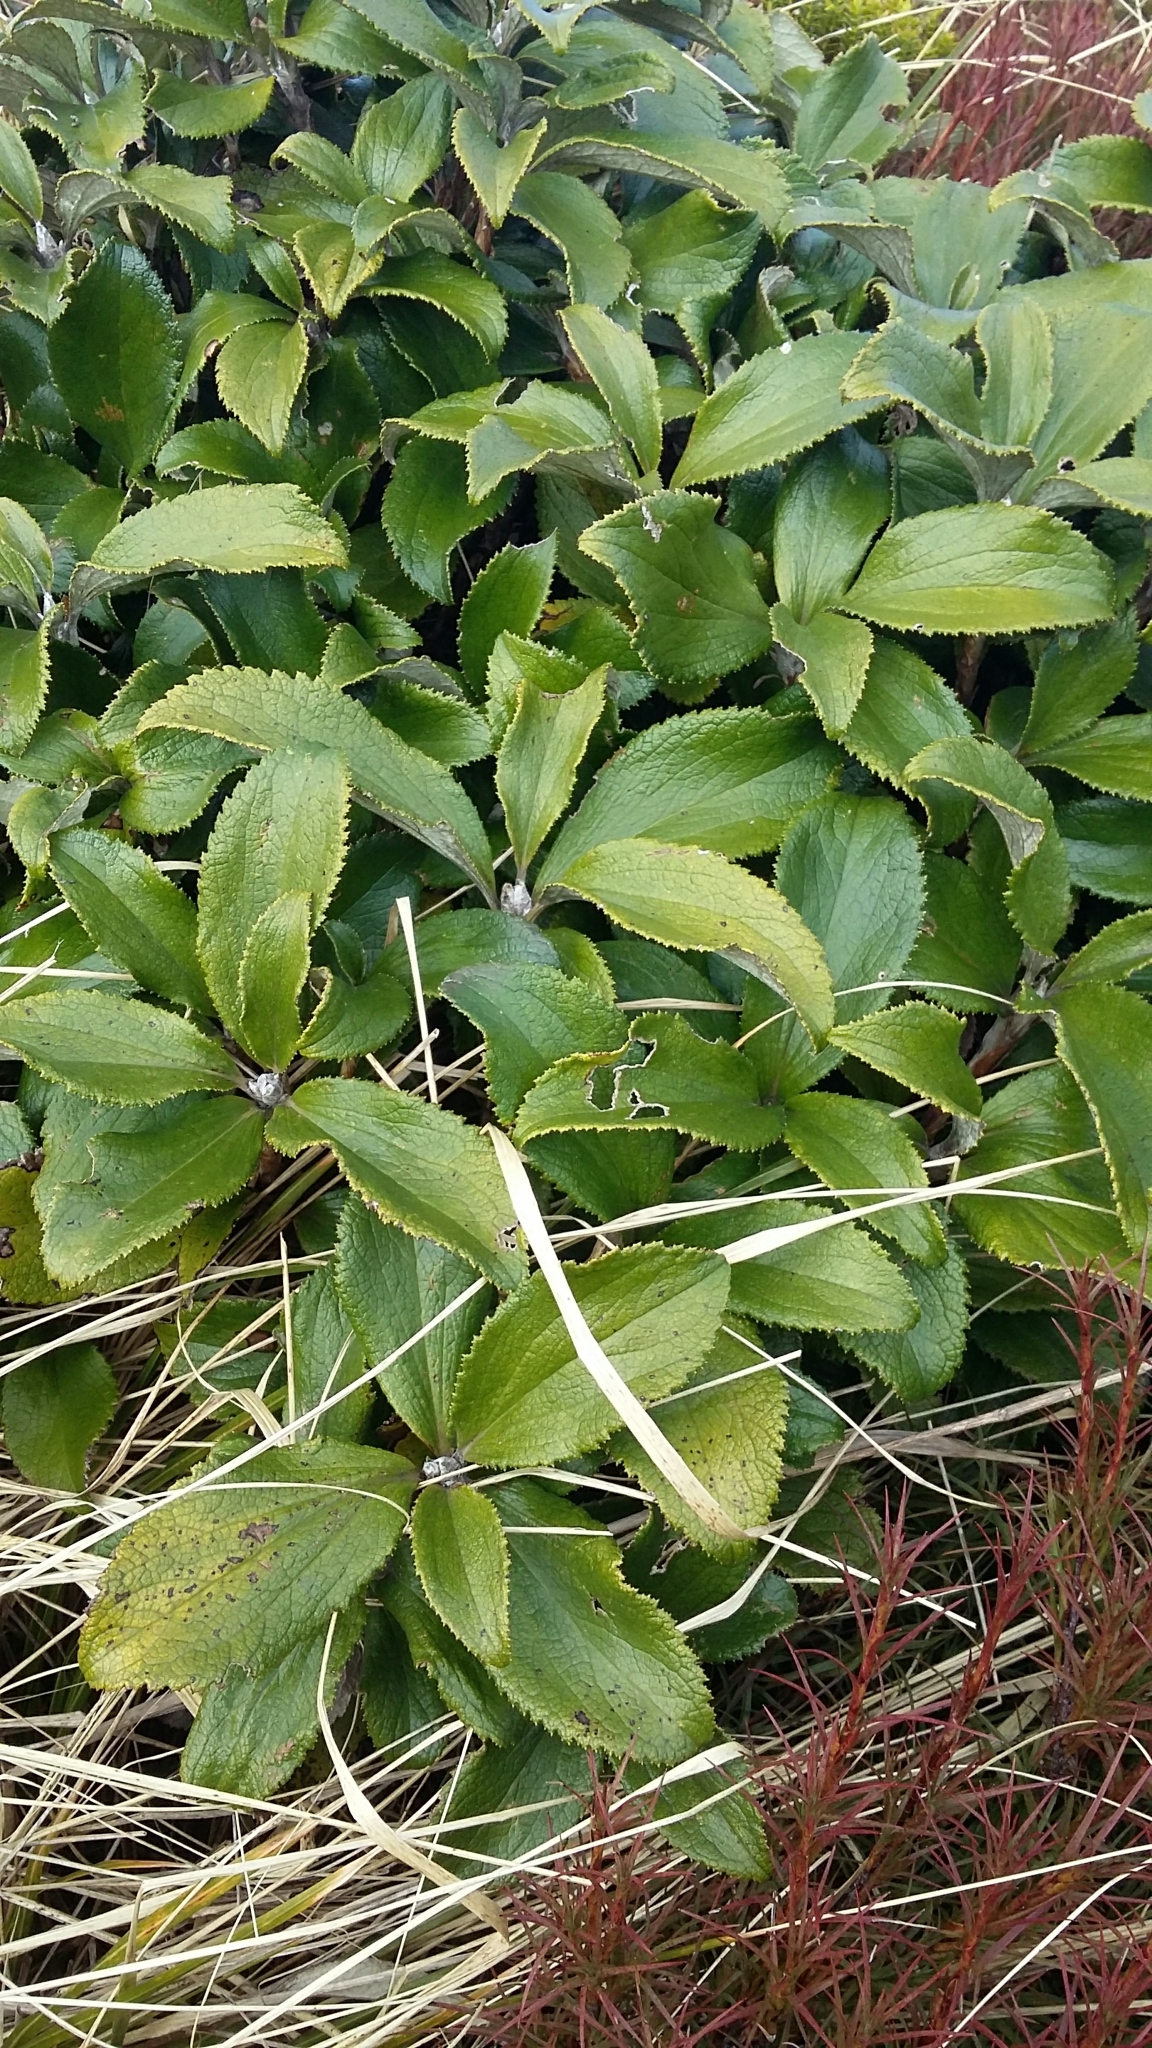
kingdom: Plantae
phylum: Tracheophyta
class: Magnoliopsida
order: Asterales
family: Asteraceae
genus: Macrolearia
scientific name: Macrolearia colensoi
